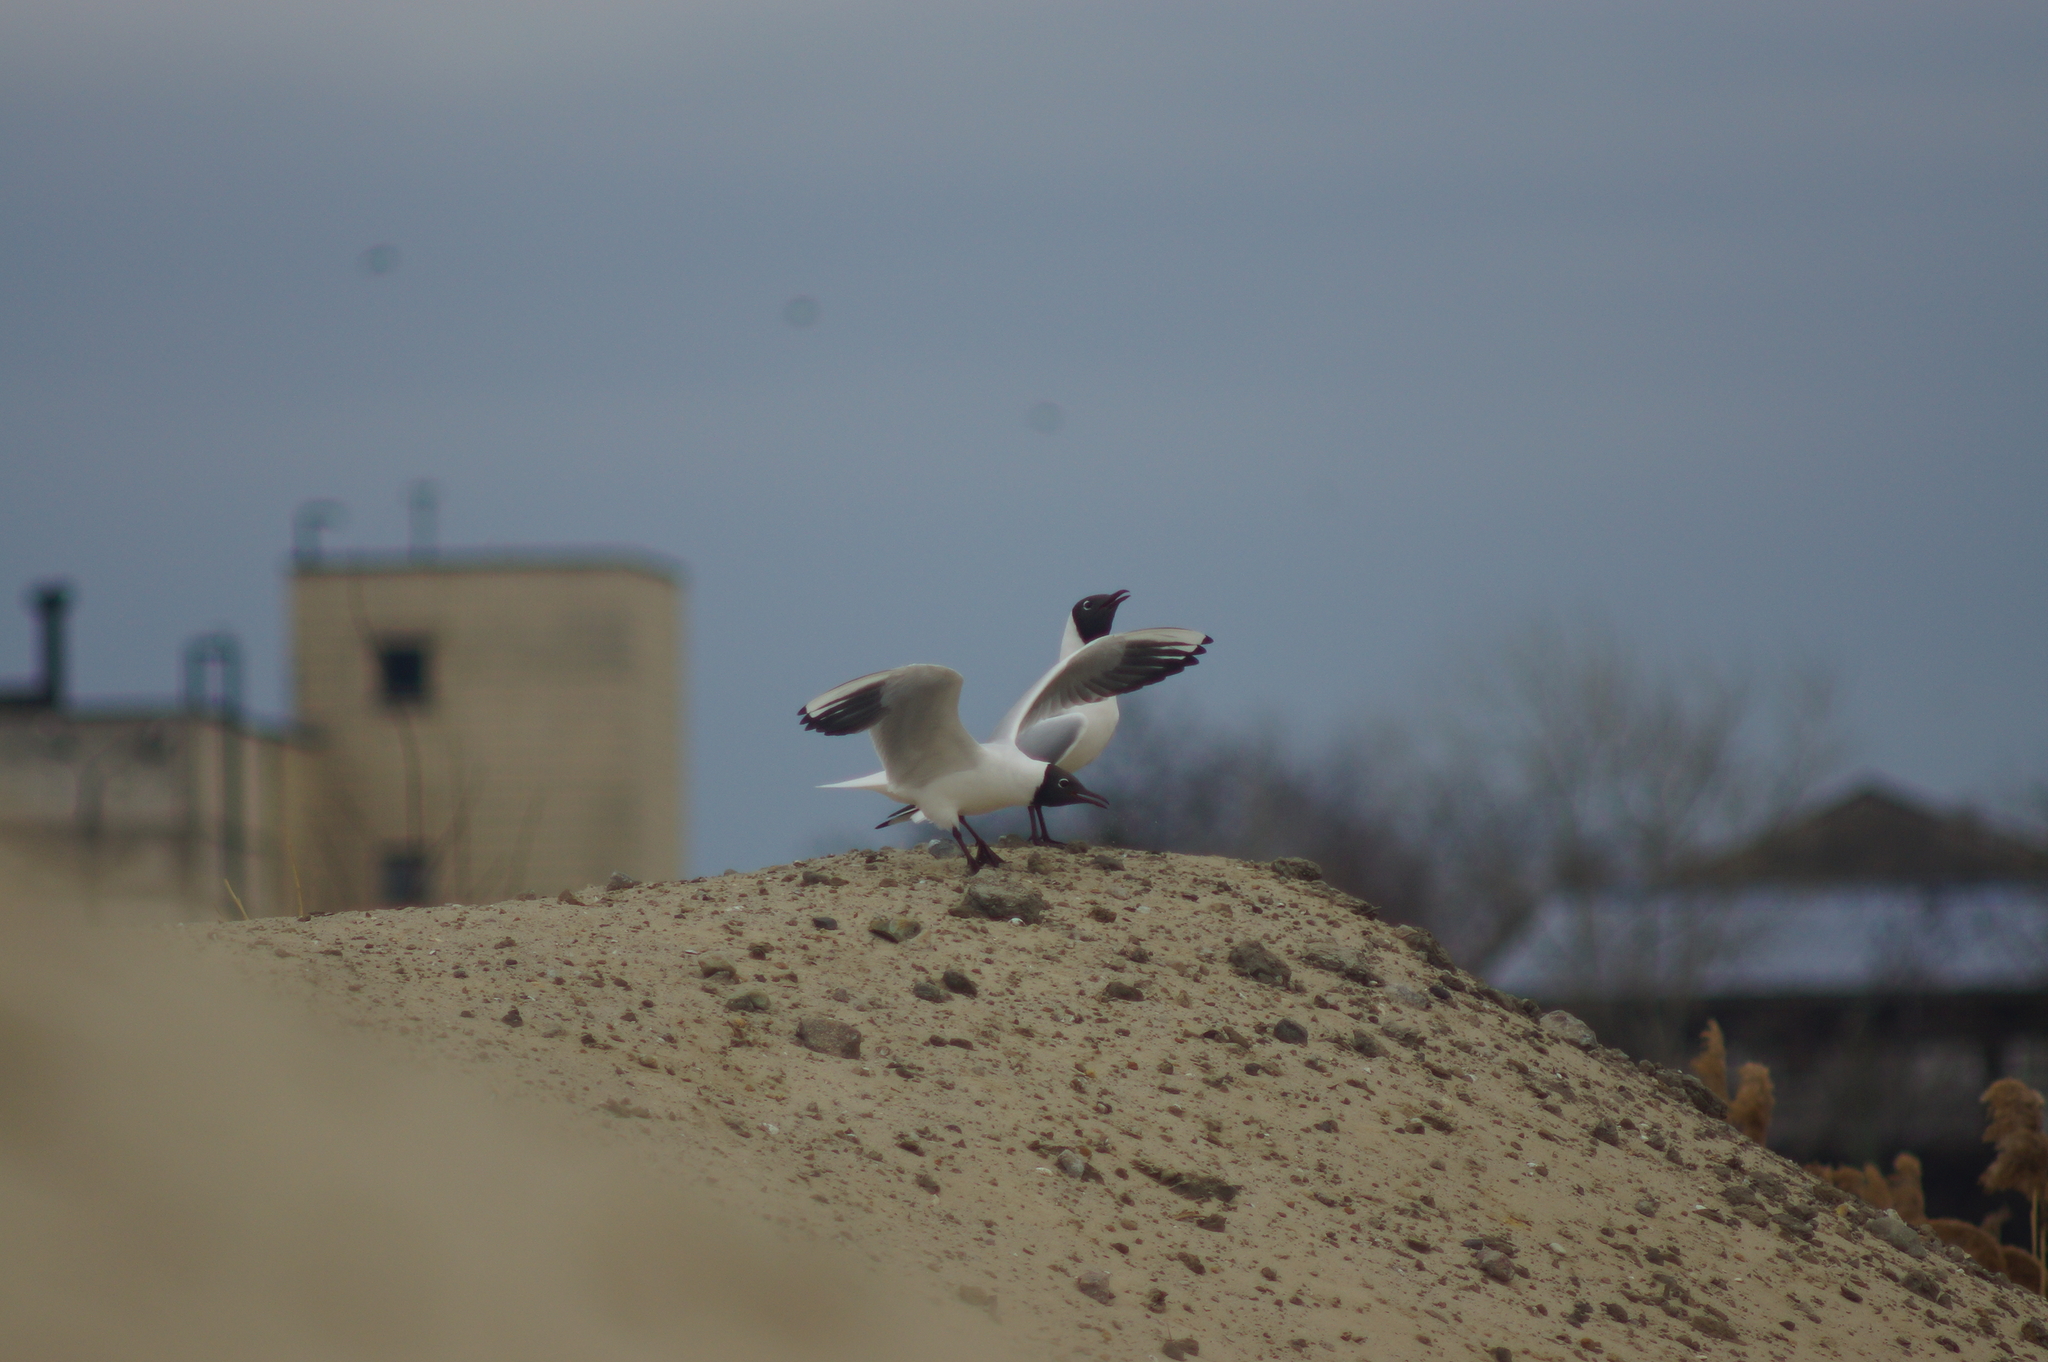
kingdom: Animalia
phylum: Chordata
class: Aves
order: Charadriiformes
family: Laridae
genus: Chroicocephalus
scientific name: Chroicocephalus ridibundus
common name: Black-headed gull
